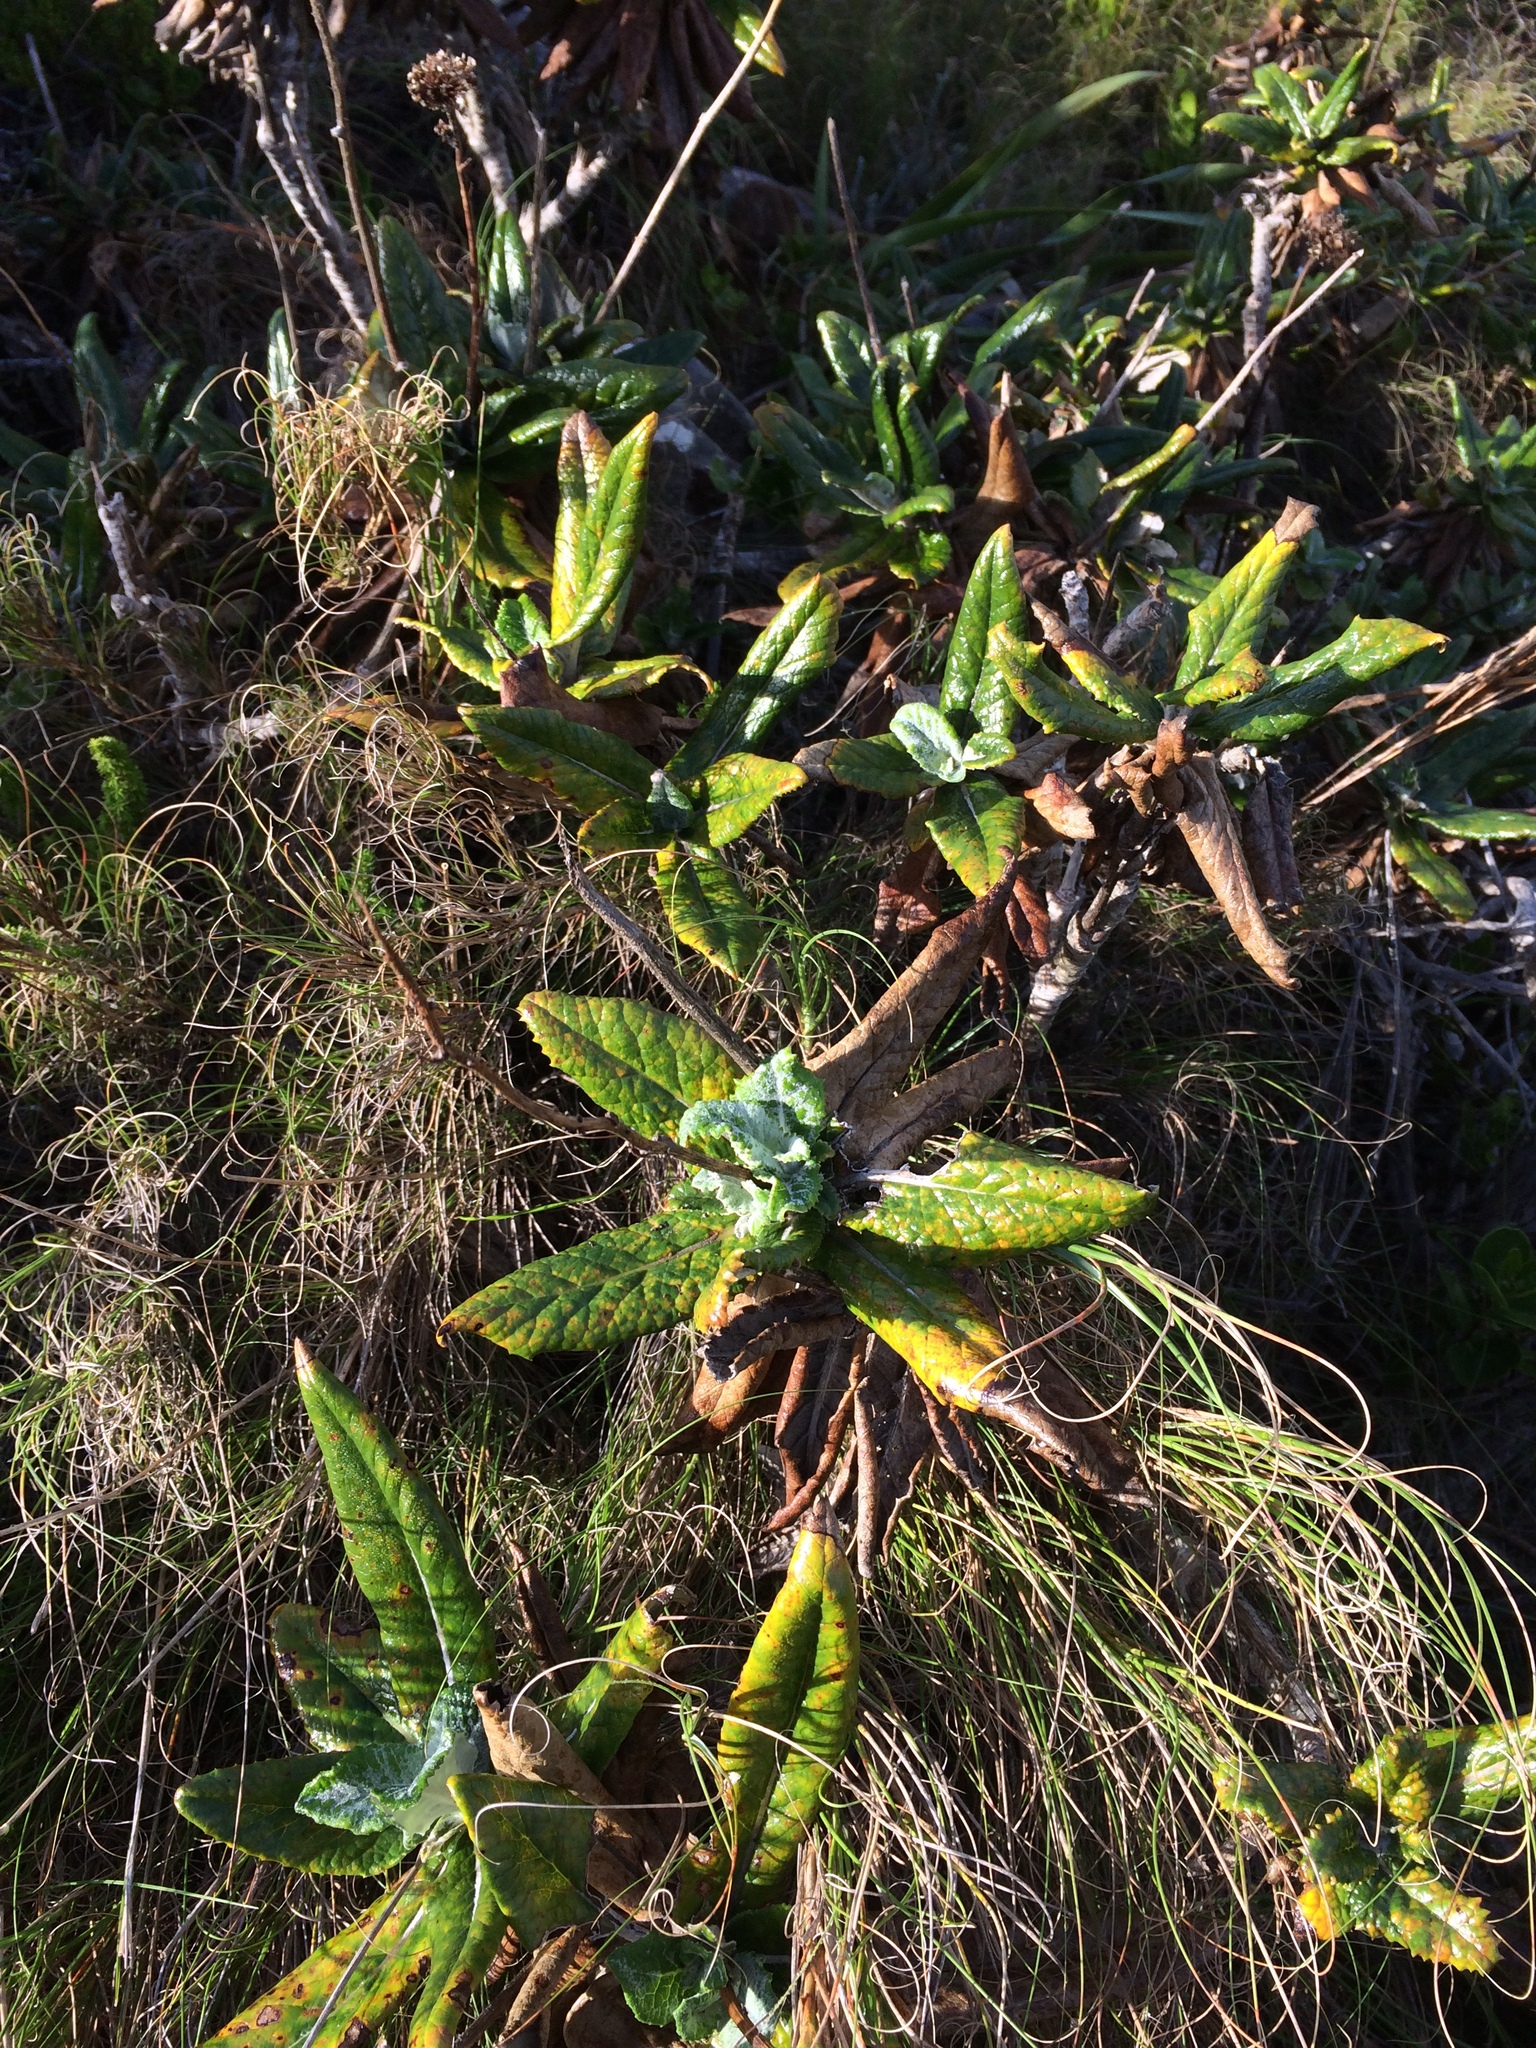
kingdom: Plantae
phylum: Tracheophyta
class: Magnoliopsida
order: Apiales
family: Apiaceae
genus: Hermas
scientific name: Hermas villosa
